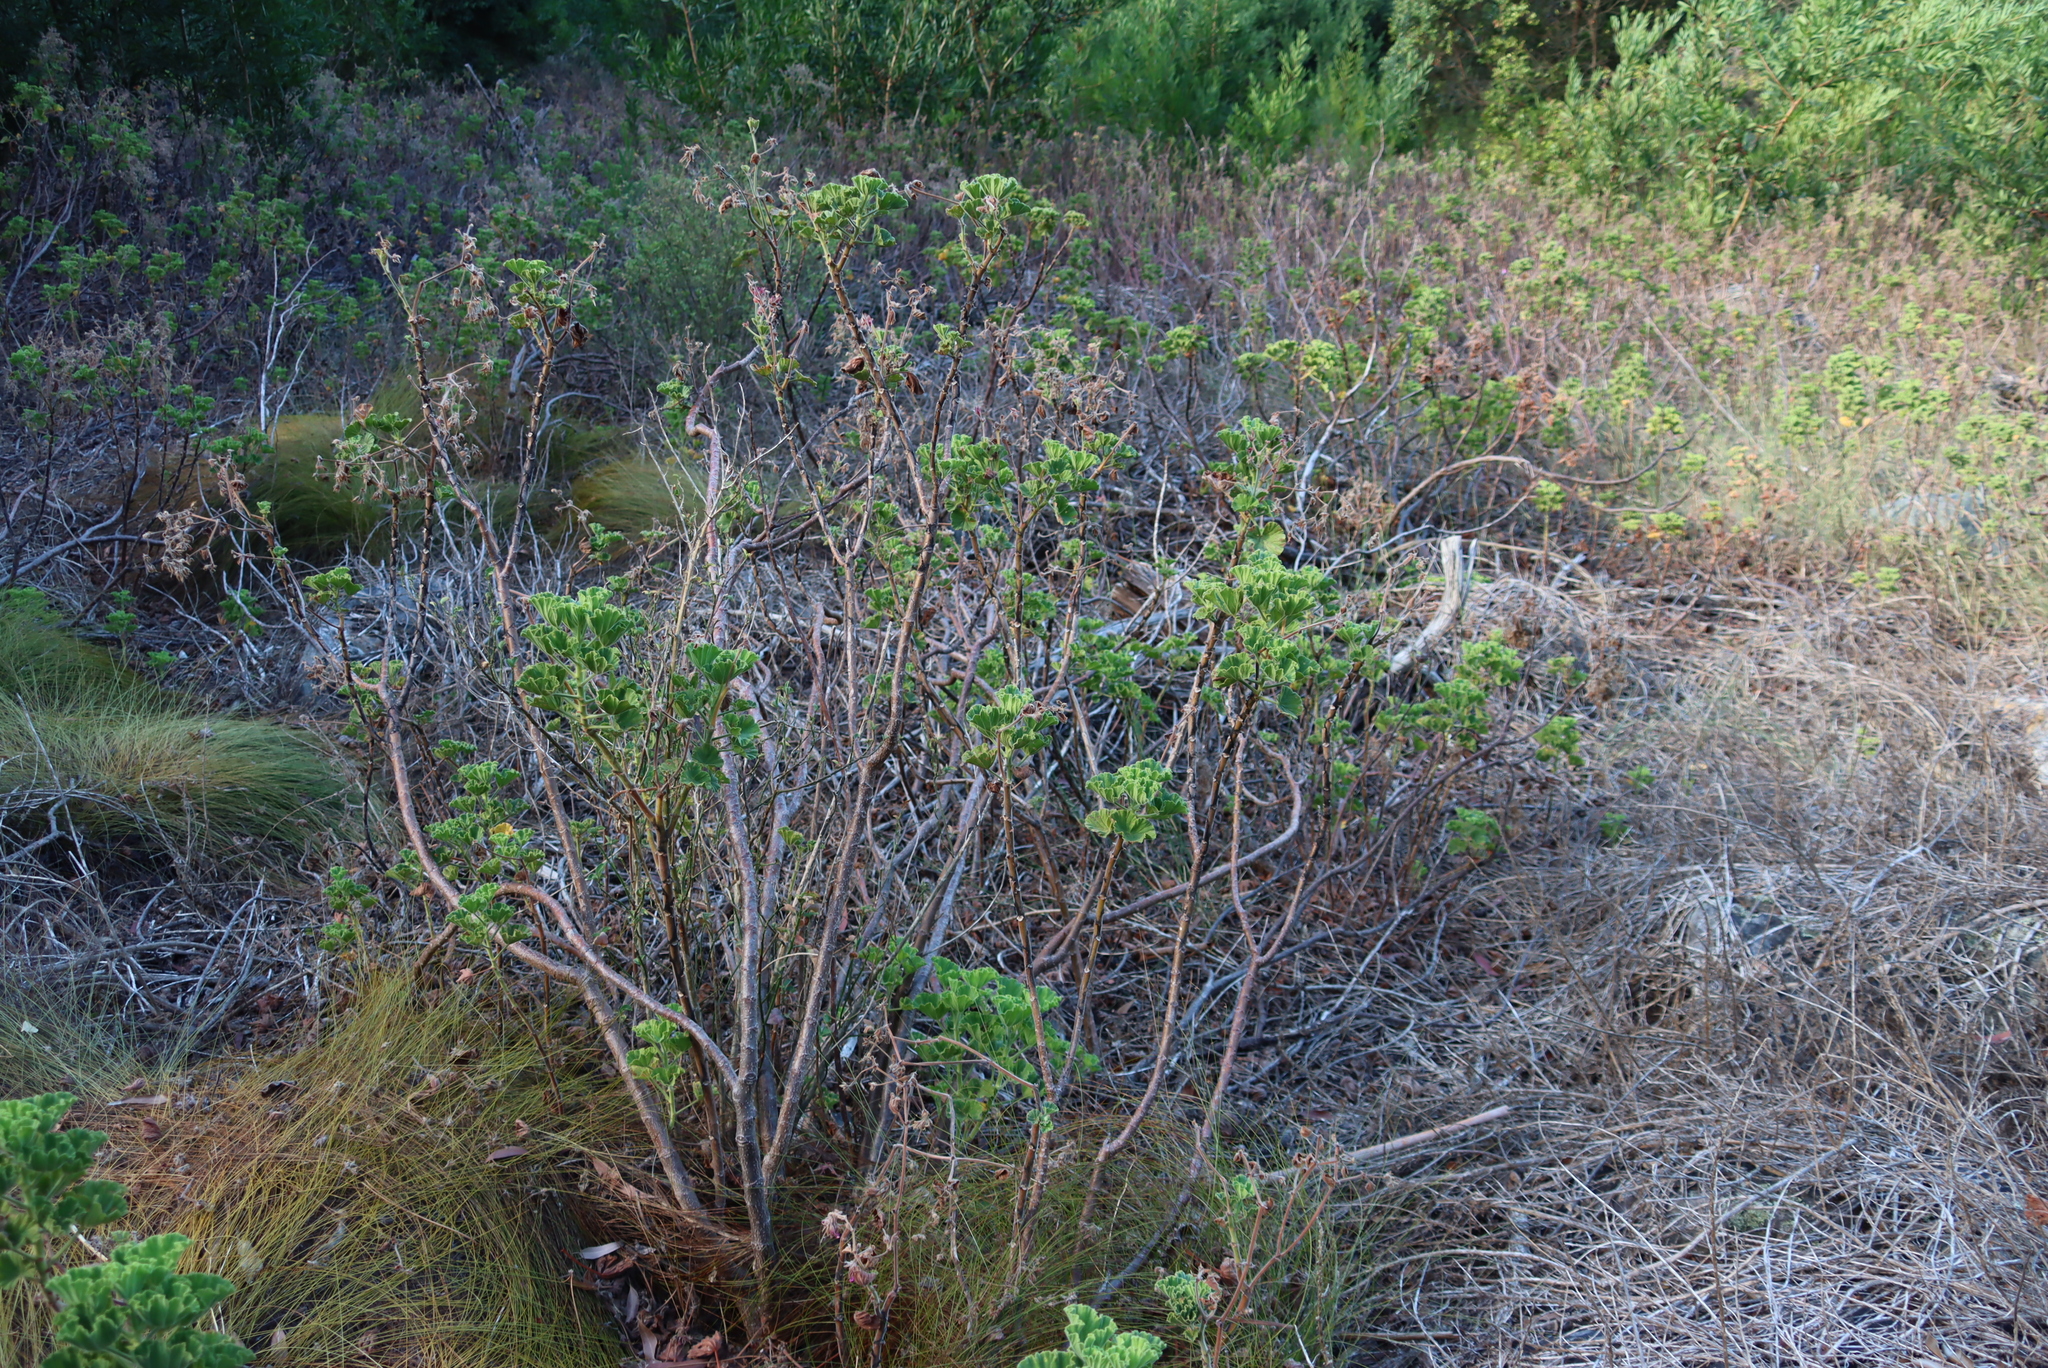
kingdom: Plantae
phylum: Tracheophyta
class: Magnoliopsida
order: Geraniales
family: Geraniaceae
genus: Pelargonium
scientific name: Pelargonium cucullatum
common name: Tree pelargonium
